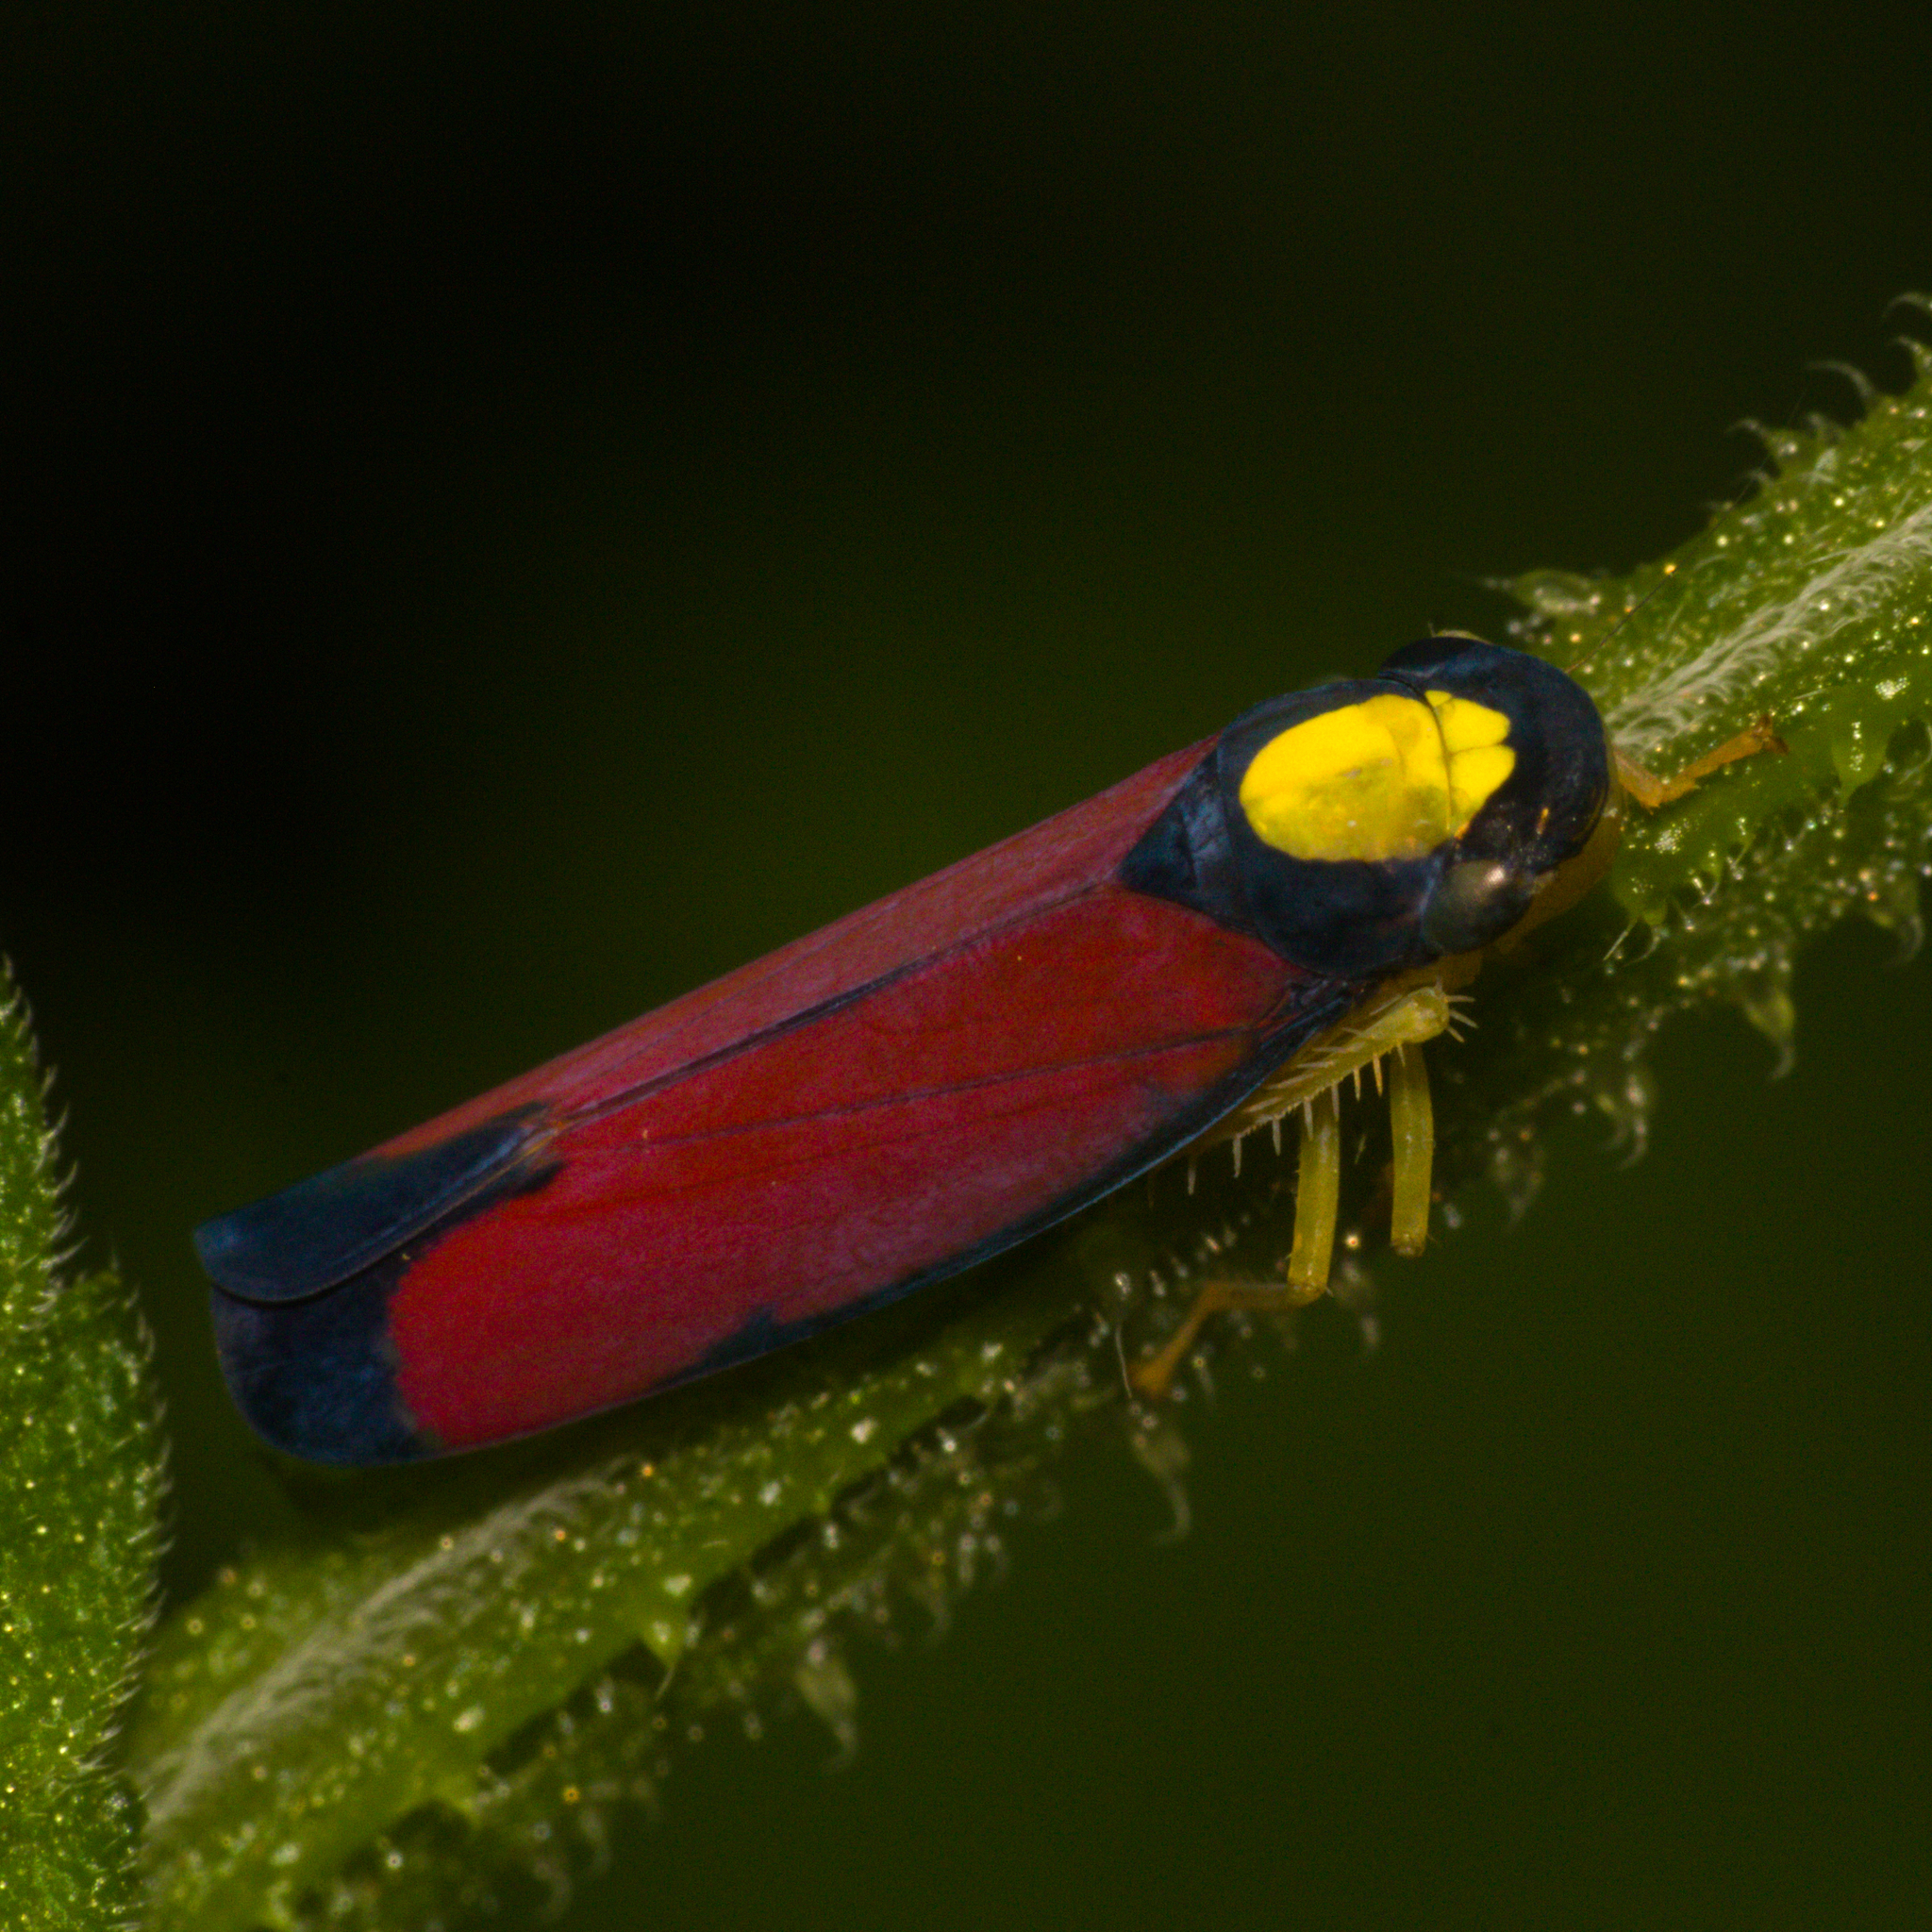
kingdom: Animalia
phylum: Arthropoda
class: Insecta
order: Hemiptera
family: Cicadellidae
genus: Erythrogonia
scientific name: Erythrogonia calva
